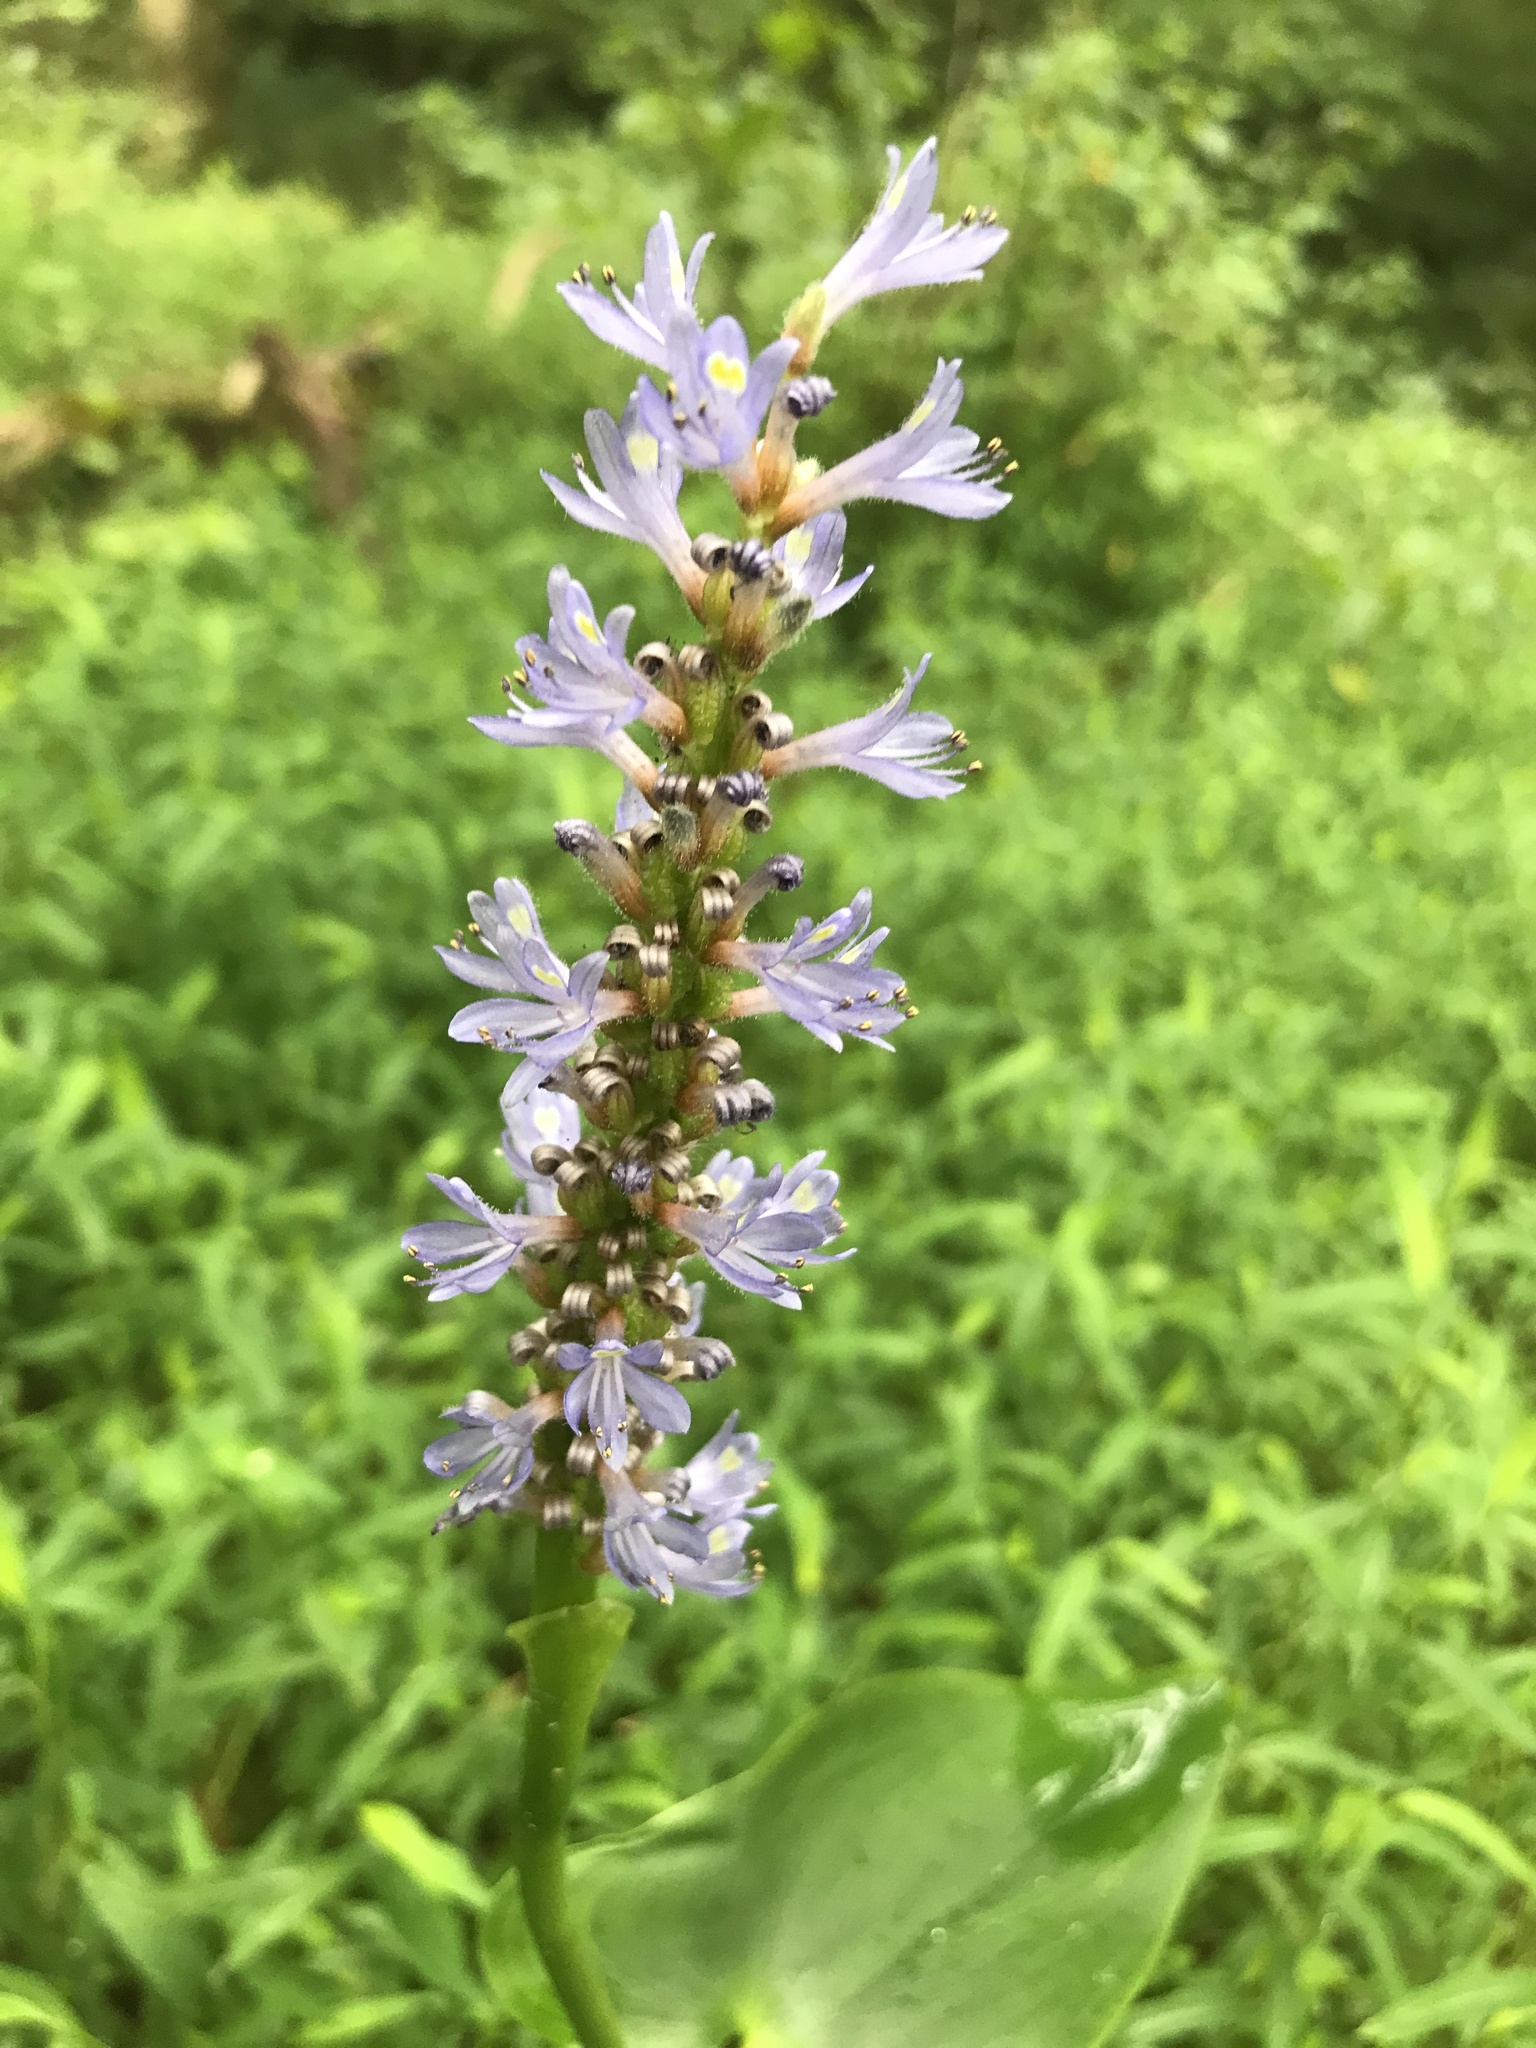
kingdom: Plantae
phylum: Tracheophyta
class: Liliopsida
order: Commelinales
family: Pontederiaceae
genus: Pontederia
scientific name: Pontederia cordata
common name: Pickerelweed
